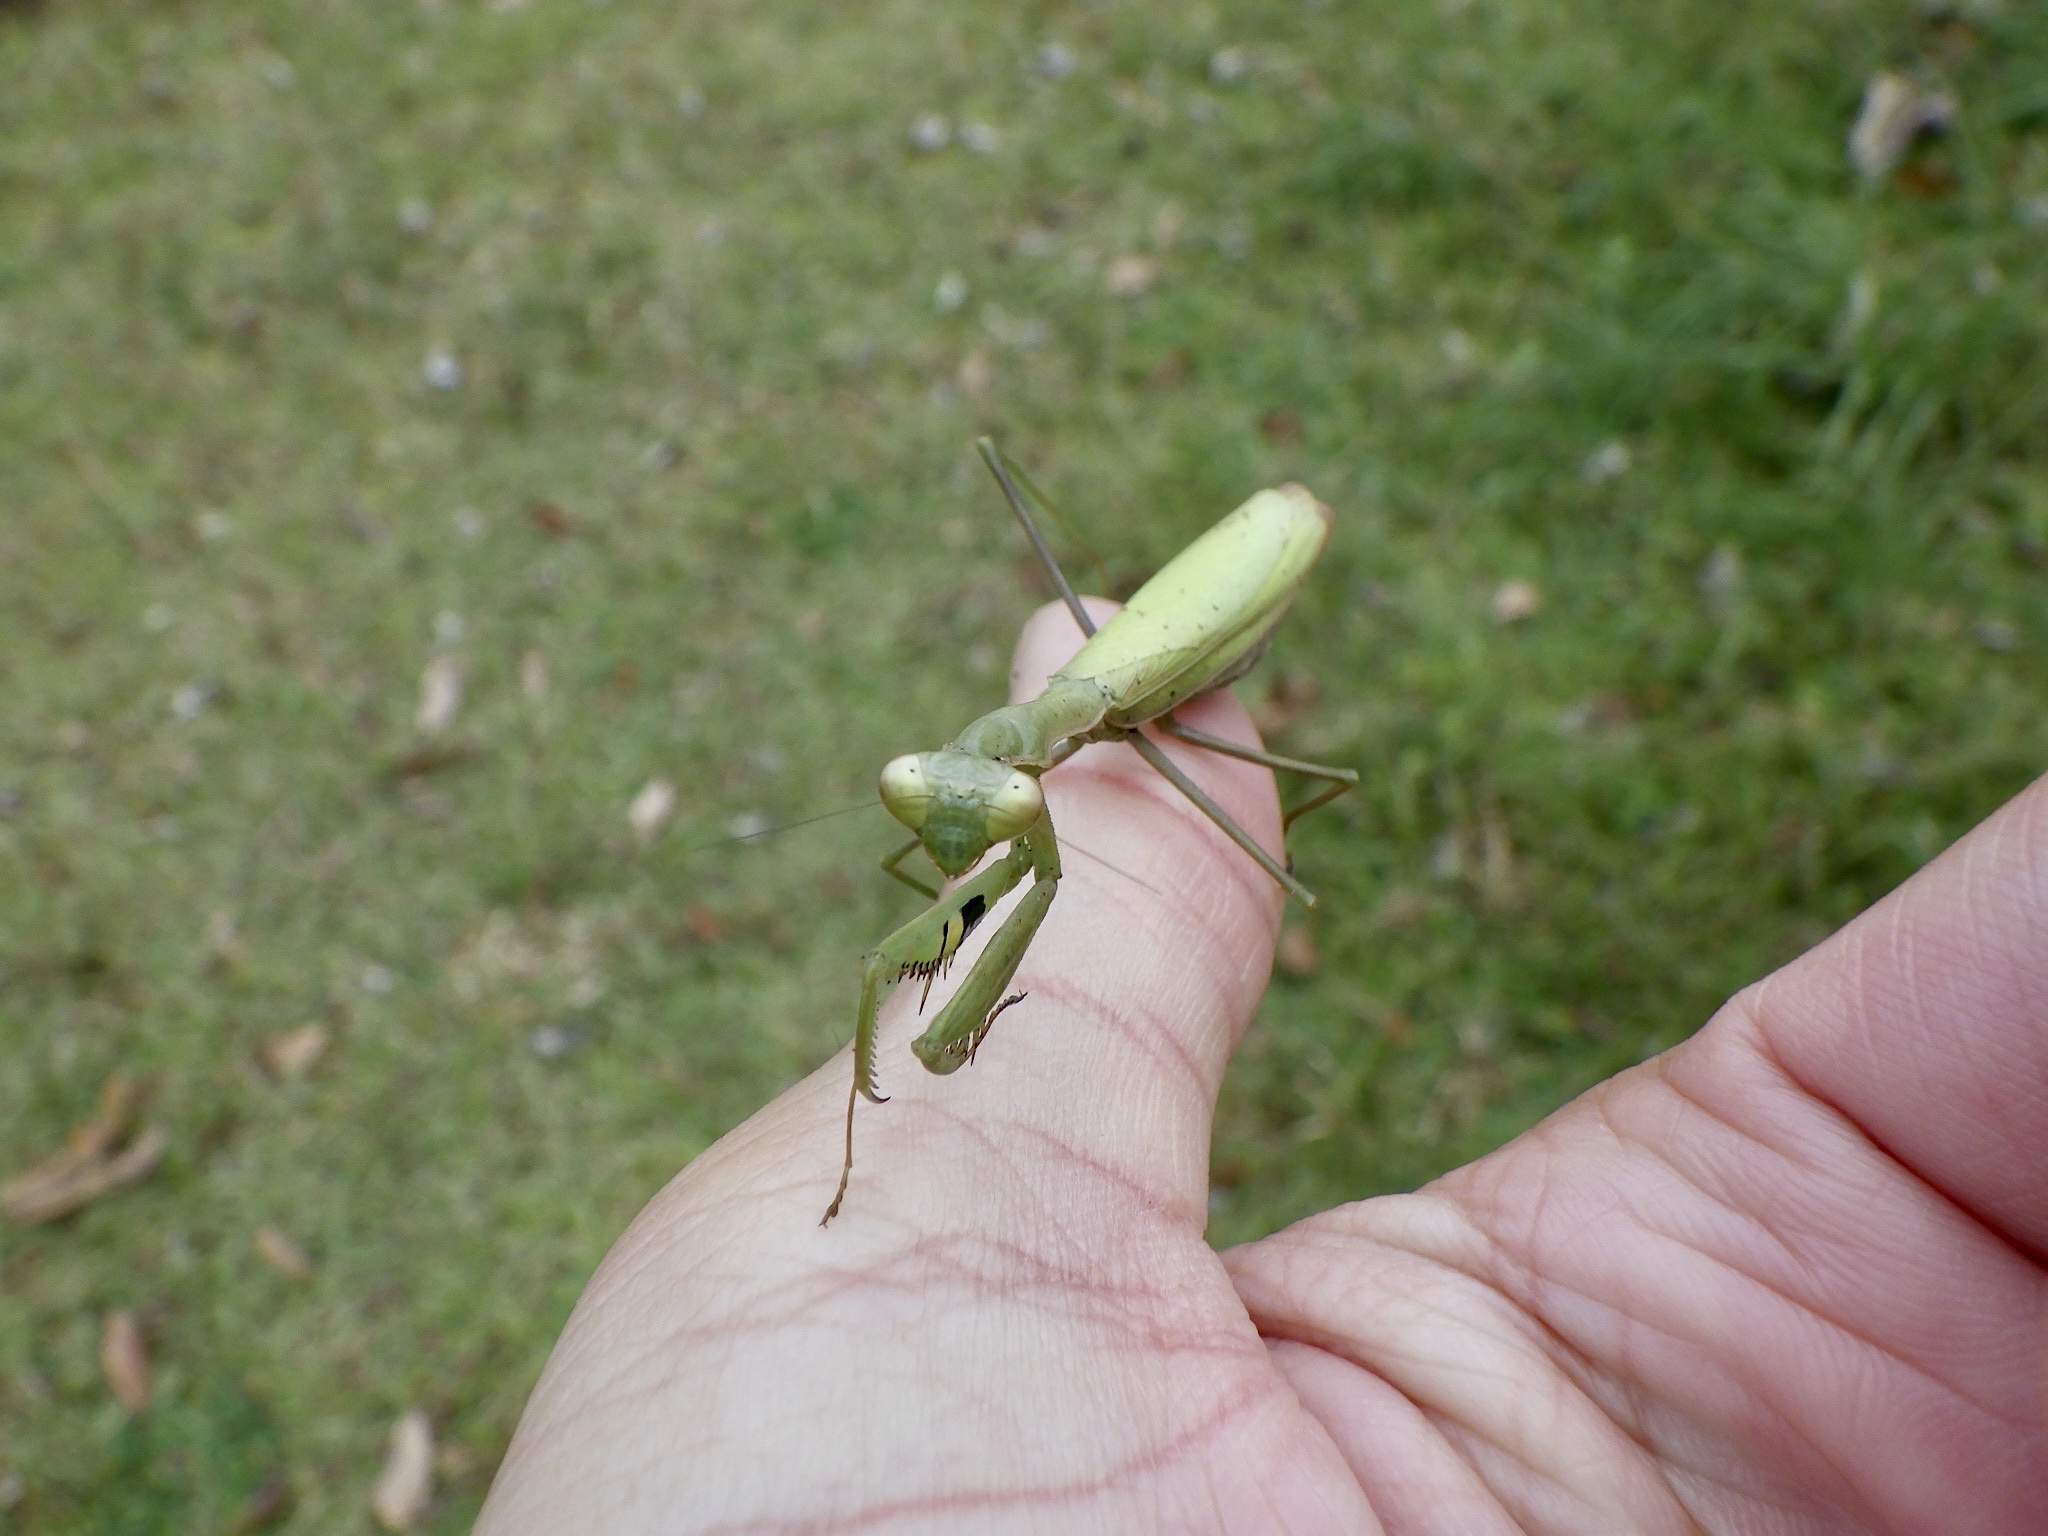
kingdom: Animalia
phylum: Arthropoda
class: Insecta
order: Mantodea
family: Mantidae
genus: Statilia
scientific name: Statilia maculata
